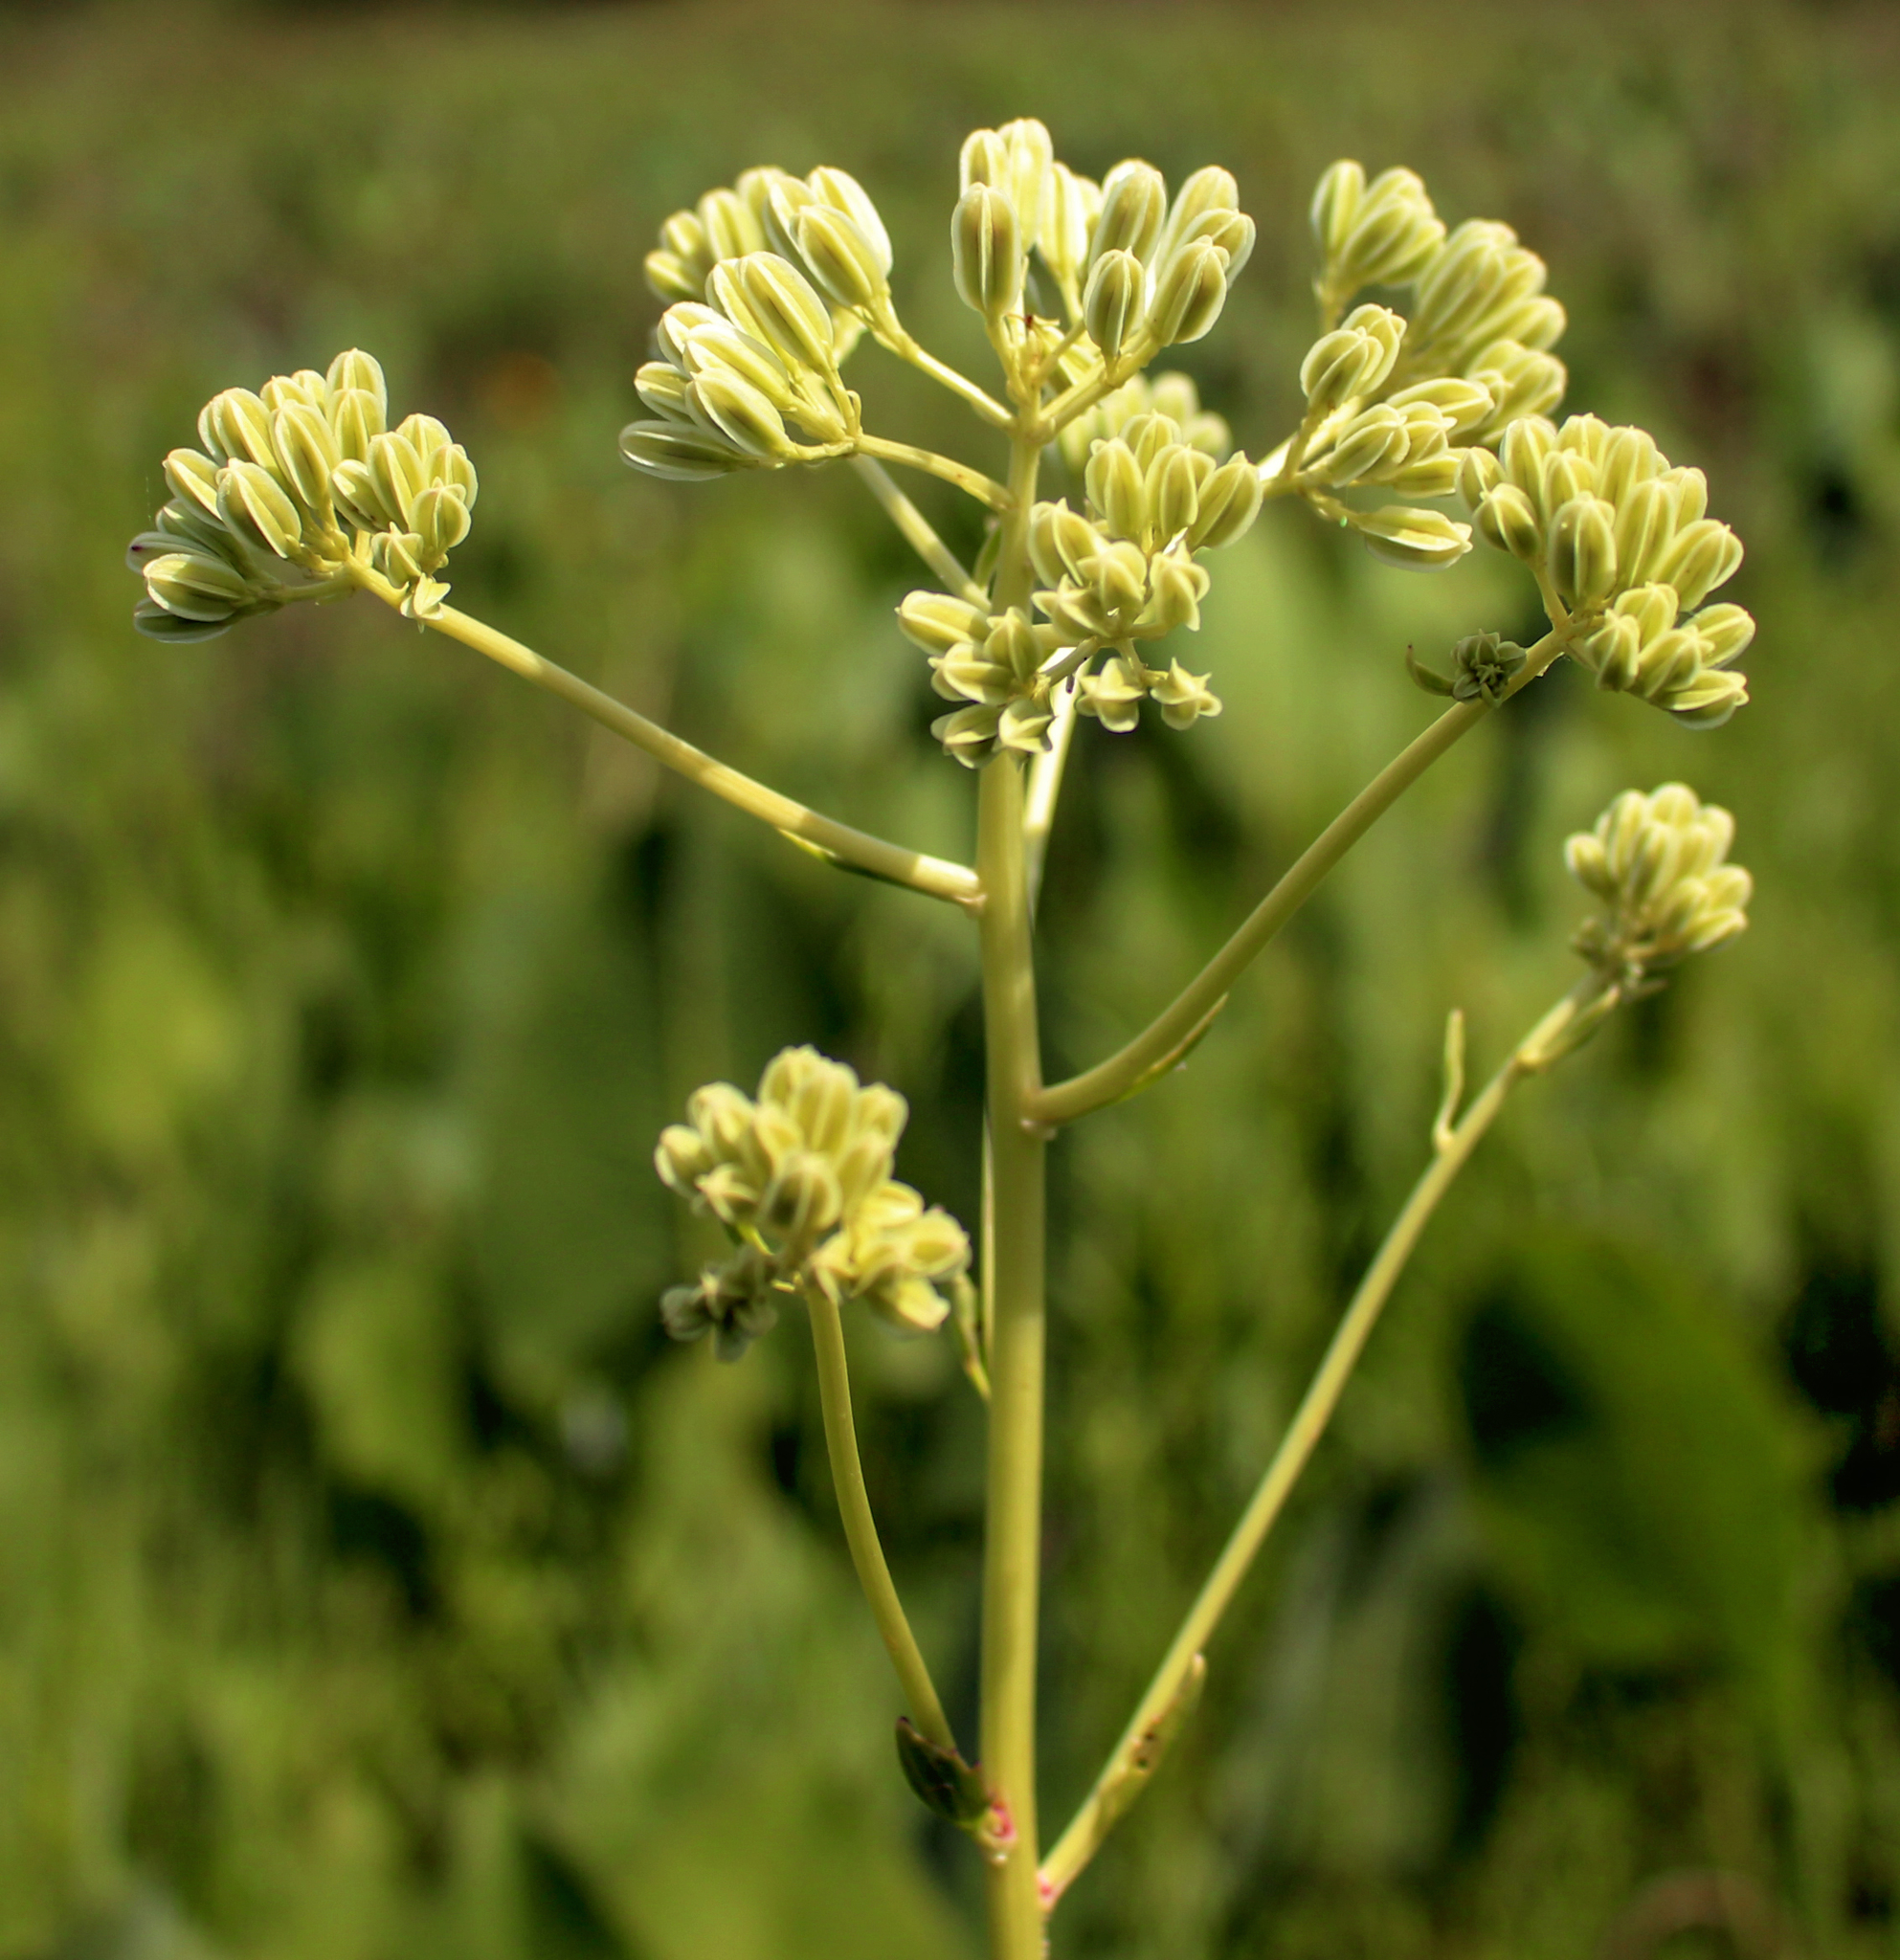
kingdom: Plantae
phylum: Tracheophyta
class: Magnoliopsida
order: Asterales
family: Asteraceae
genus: Arnoglossum
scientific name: Arnoglossum plantagineum
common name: Groove-stemmed indian-plantain
